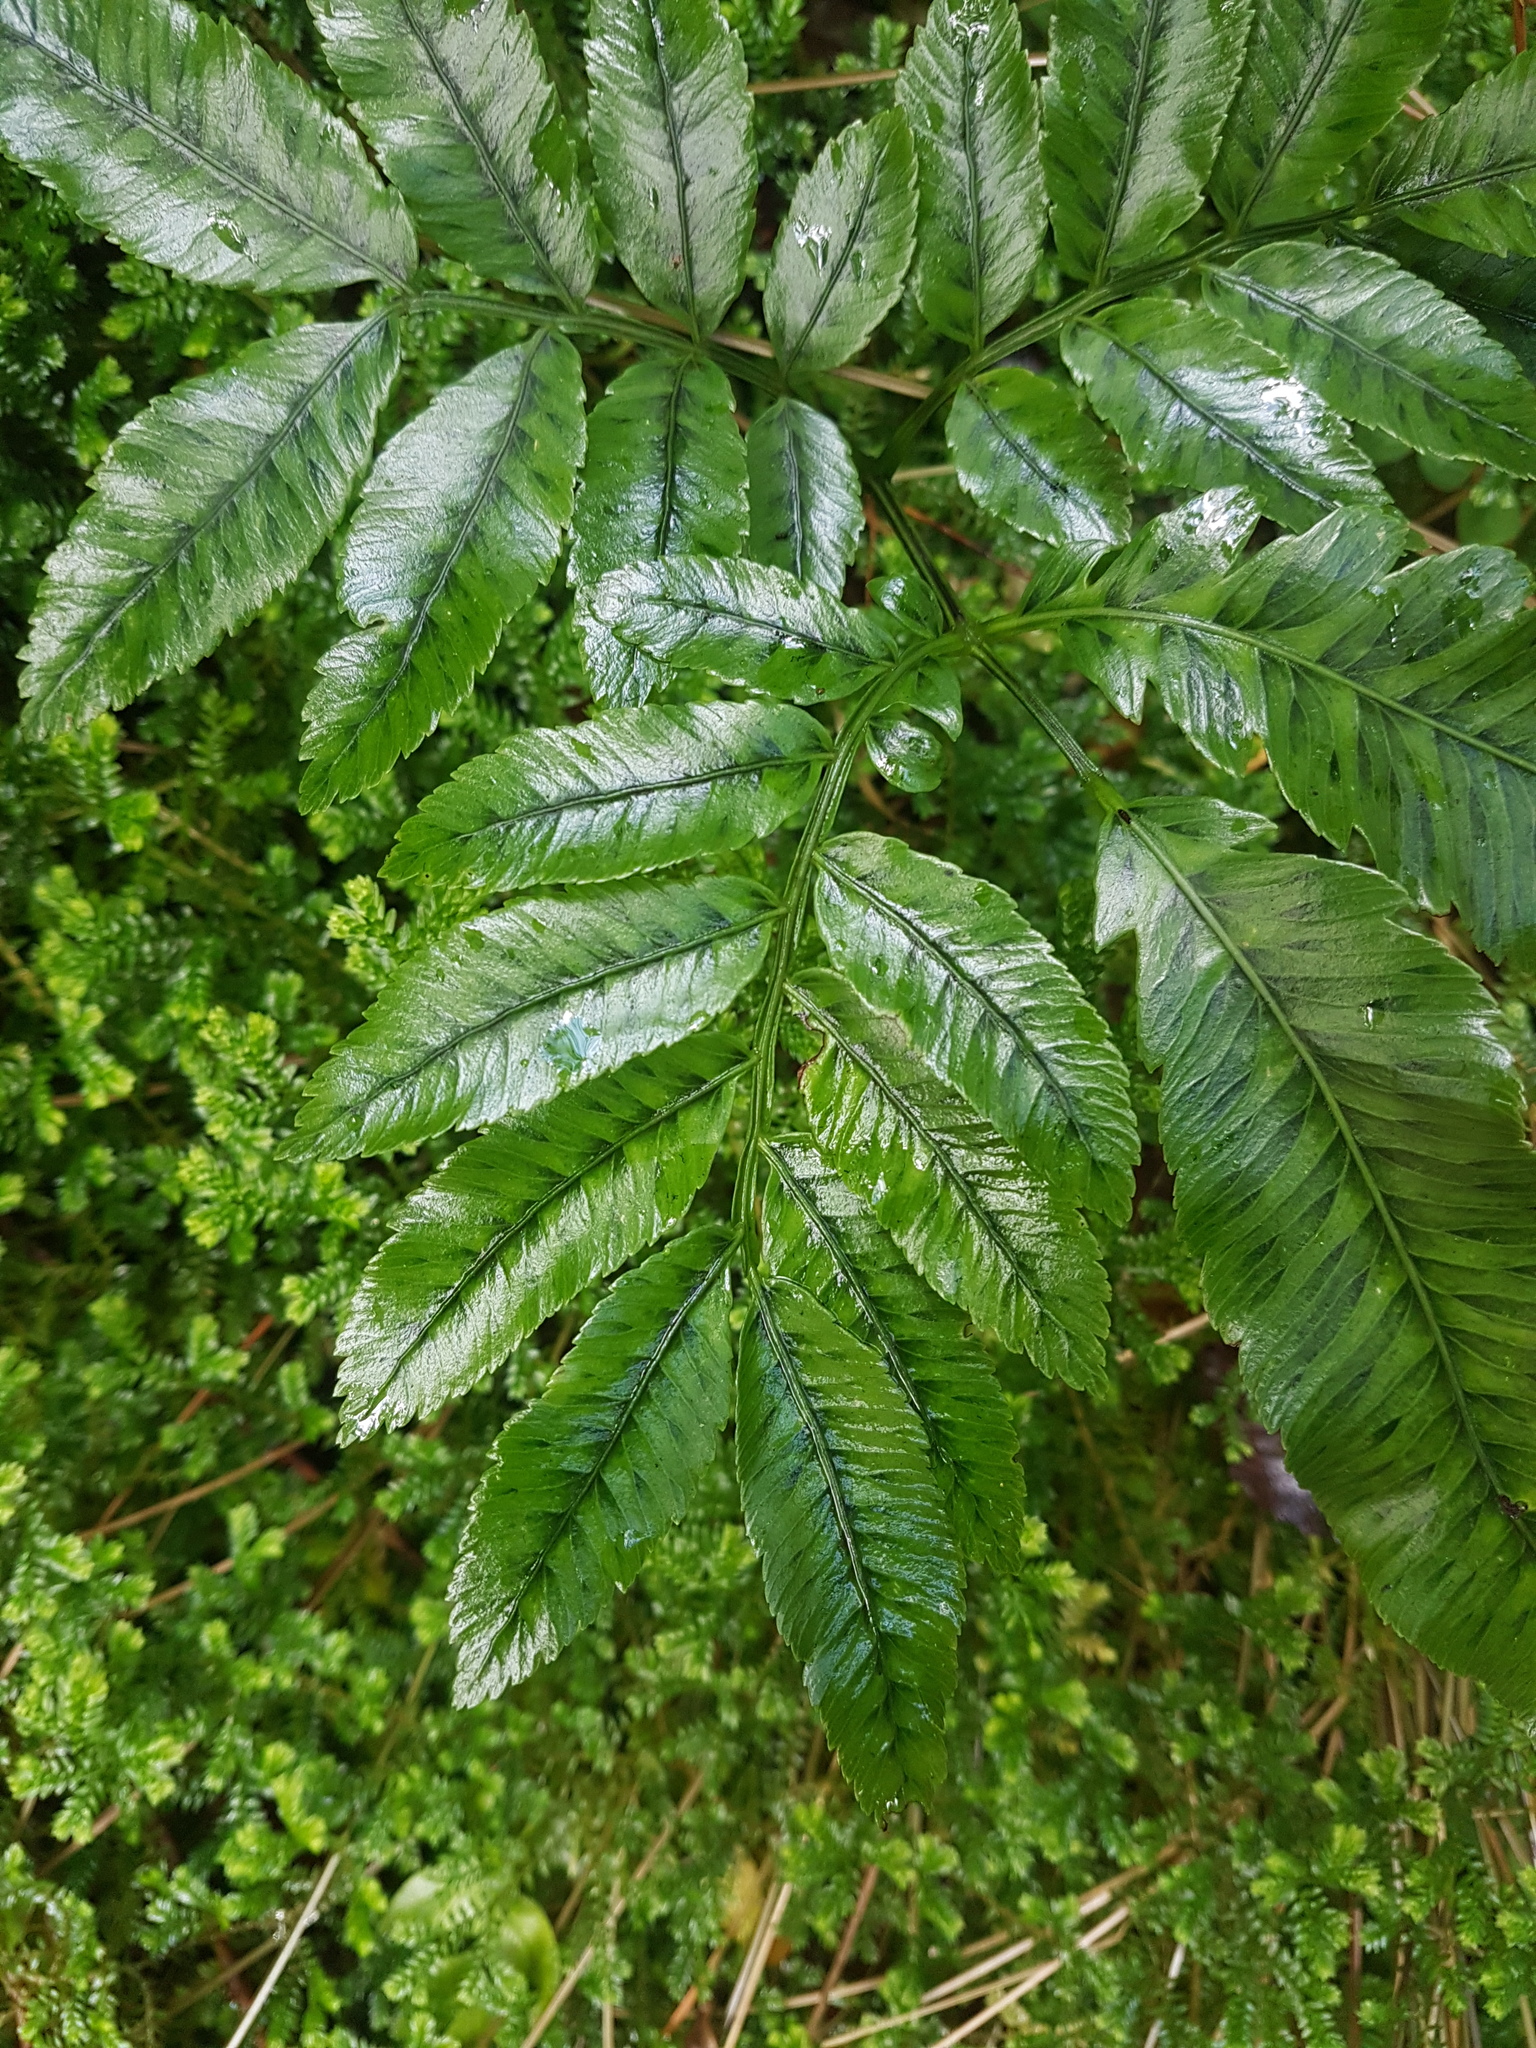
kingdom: Plantae
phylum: Tracheophyta
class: Polypodiopsida
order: Marattiales
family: Marattiaceae
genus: Ptisana
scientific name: Ptisana salicina
